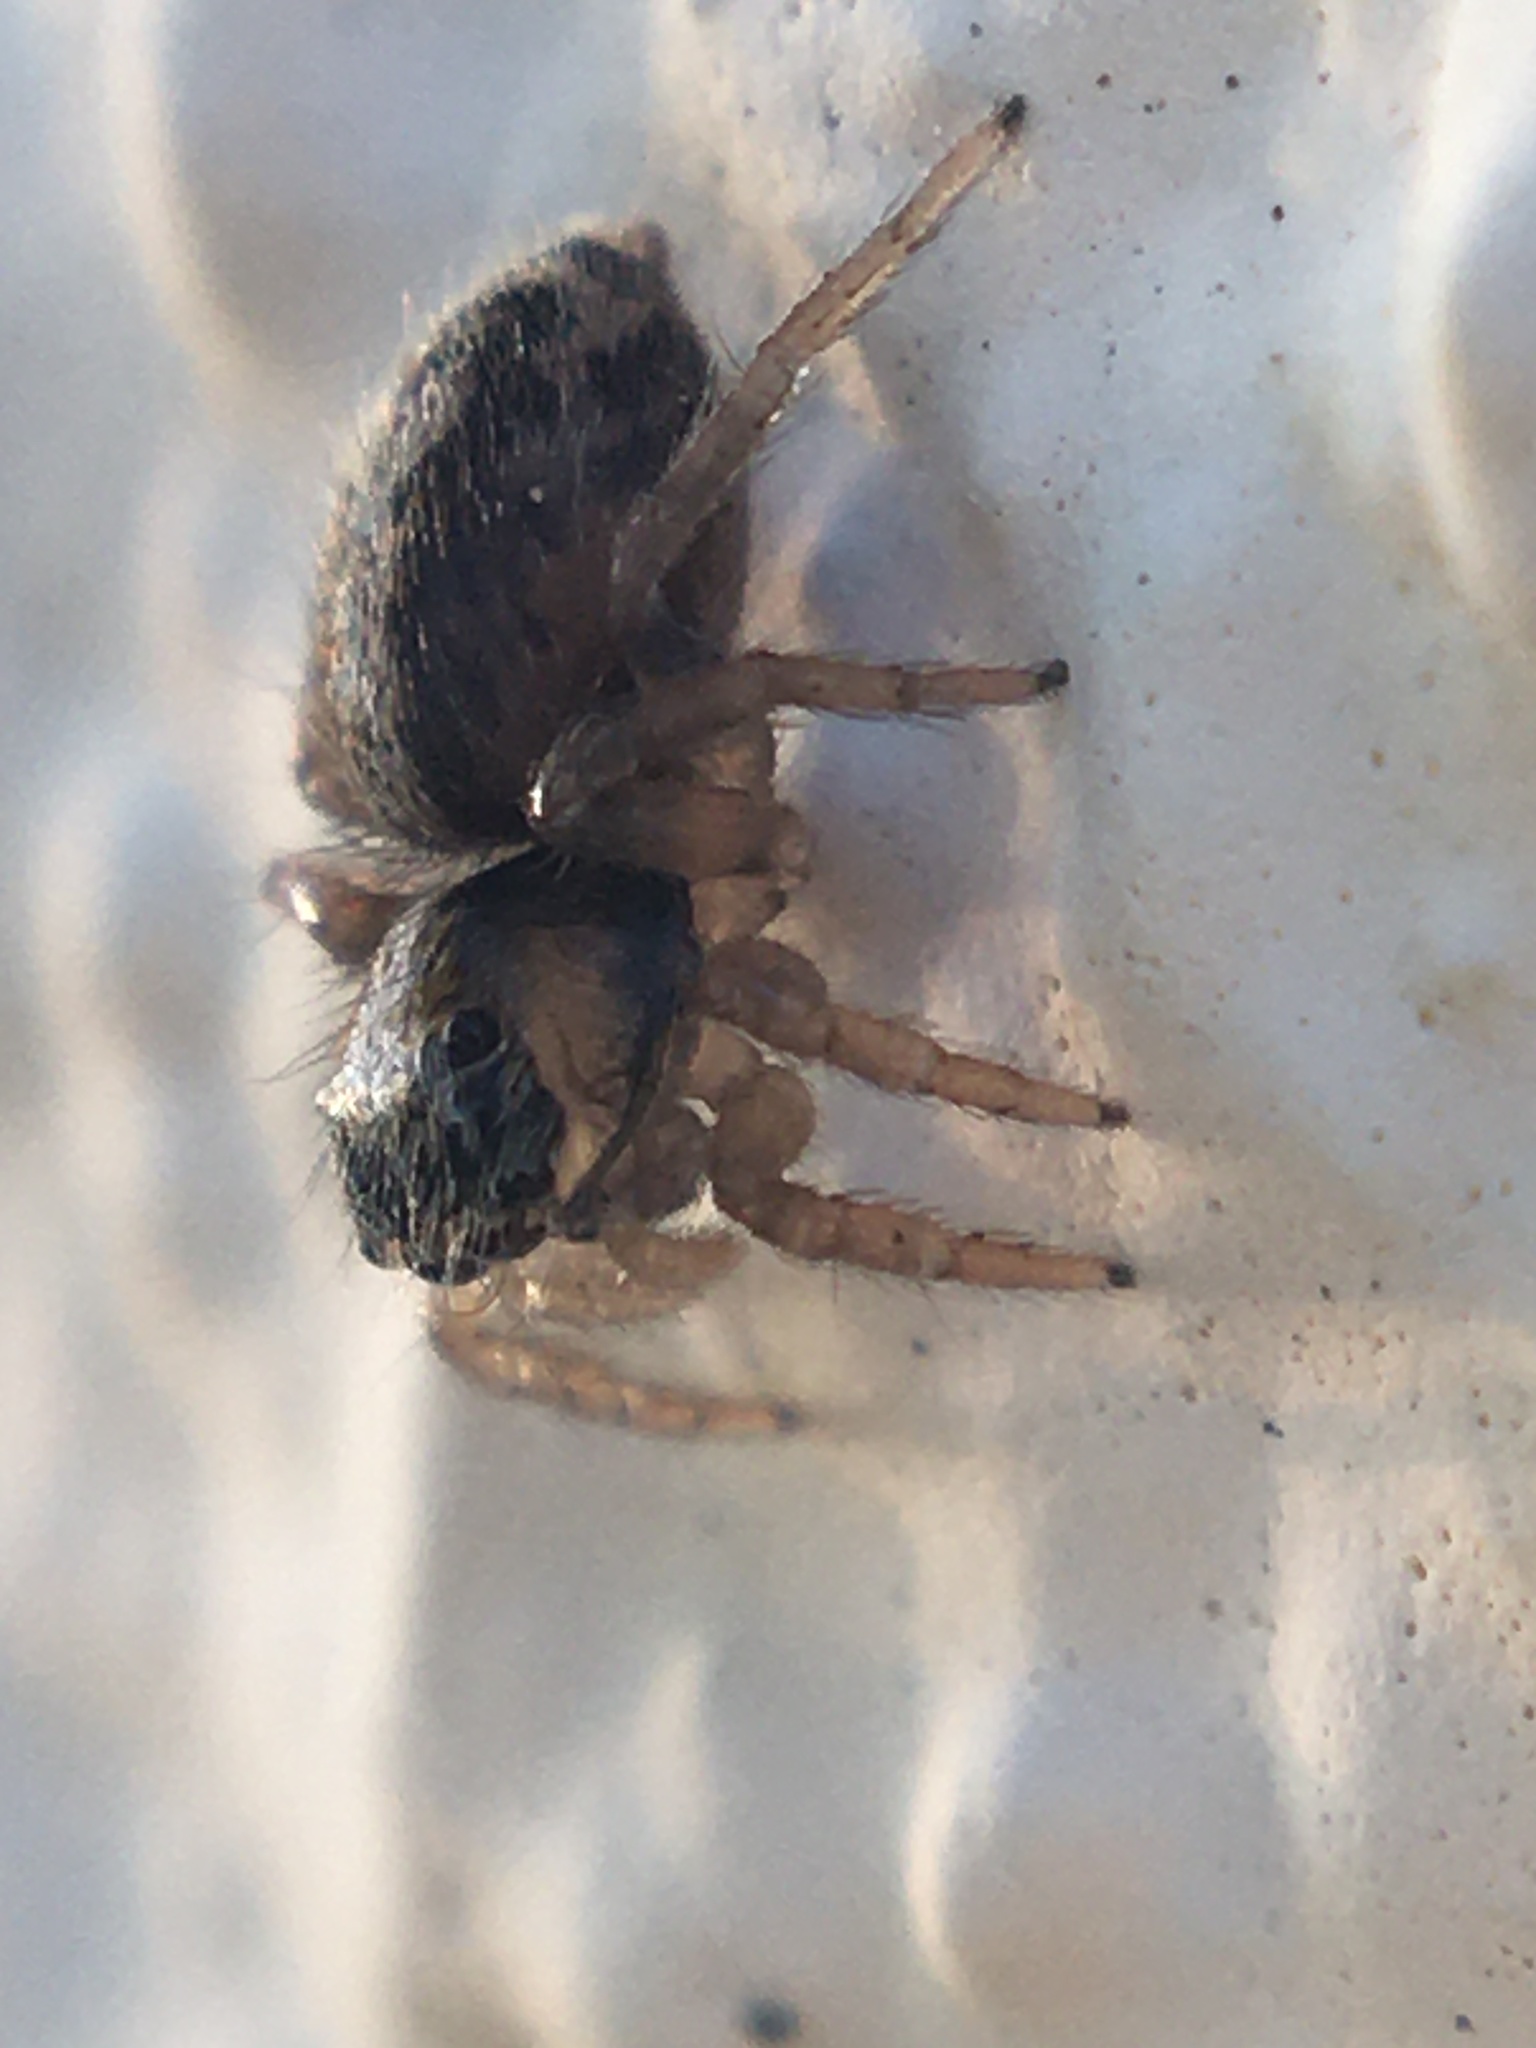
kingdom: Animalia
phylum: Arthropoda
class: Arachnida
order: Araneae
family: Salticidae
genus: Saitis
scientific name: Saitis barbipes
